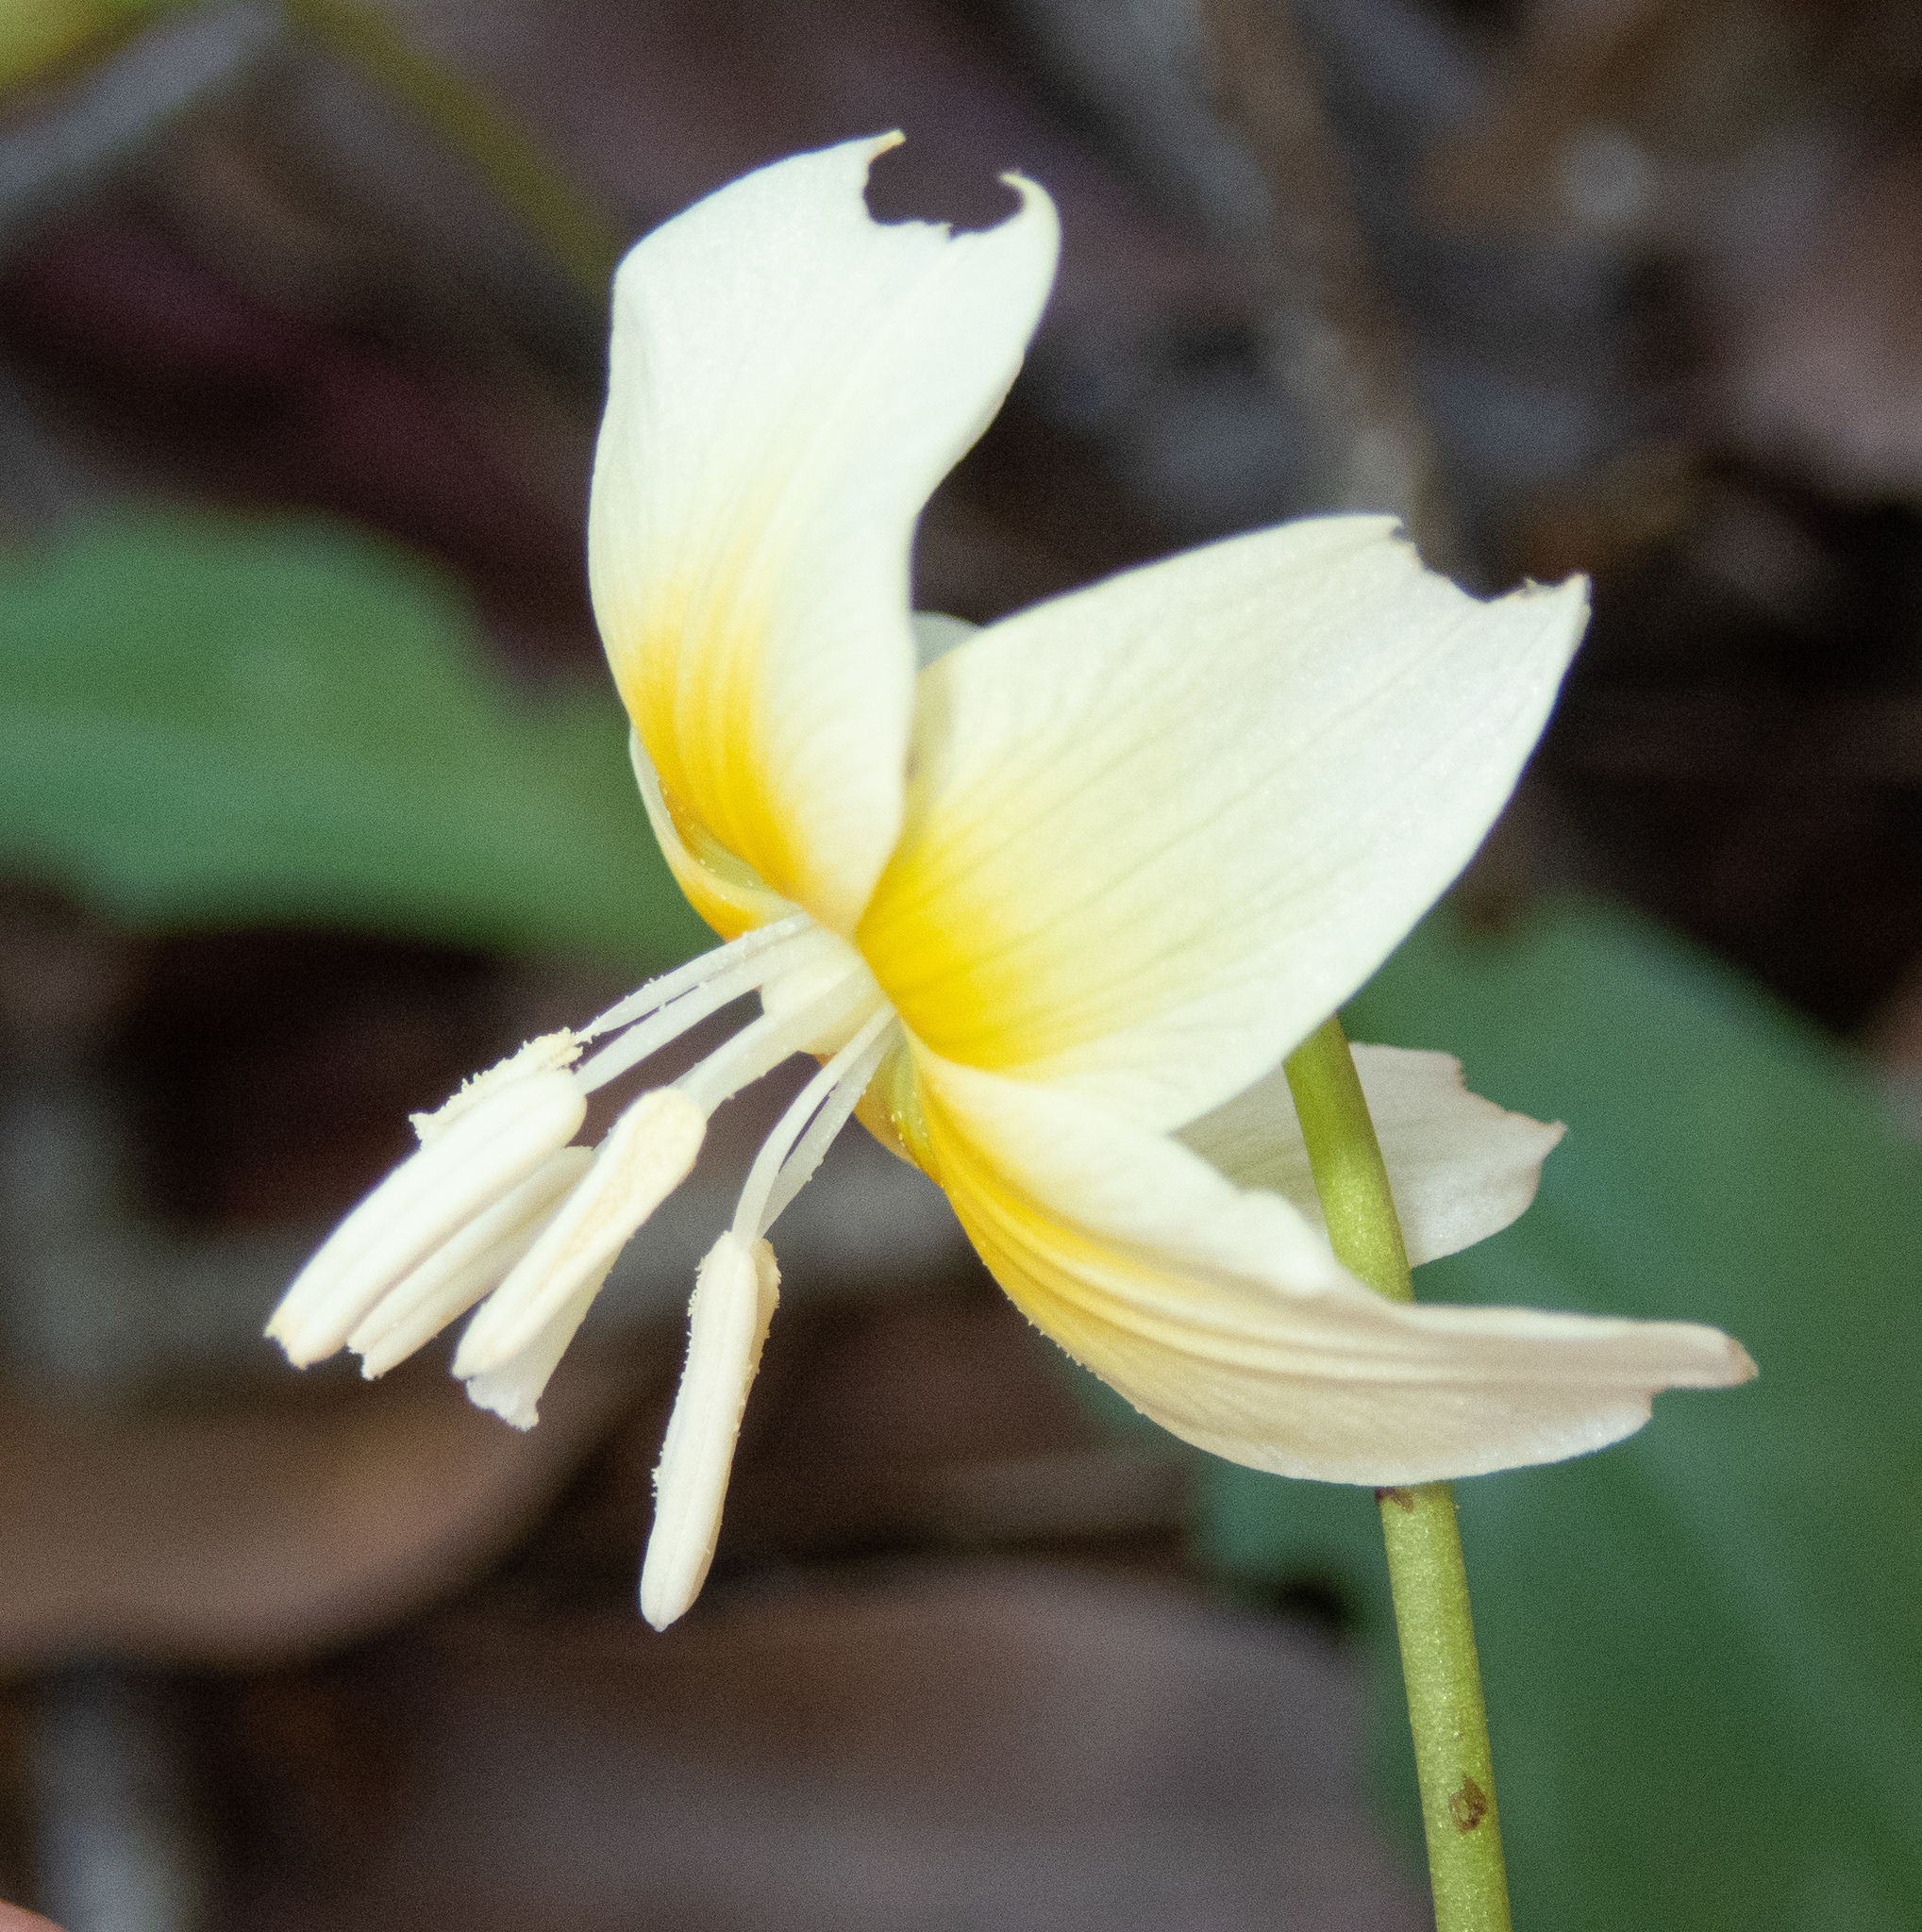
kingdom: Plantae
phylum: Tracheophyta
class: Liliopsida
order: Liliales
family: Liliaceae
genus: Erythronium
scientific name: Erythronium californicum
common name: Fawn-lily
